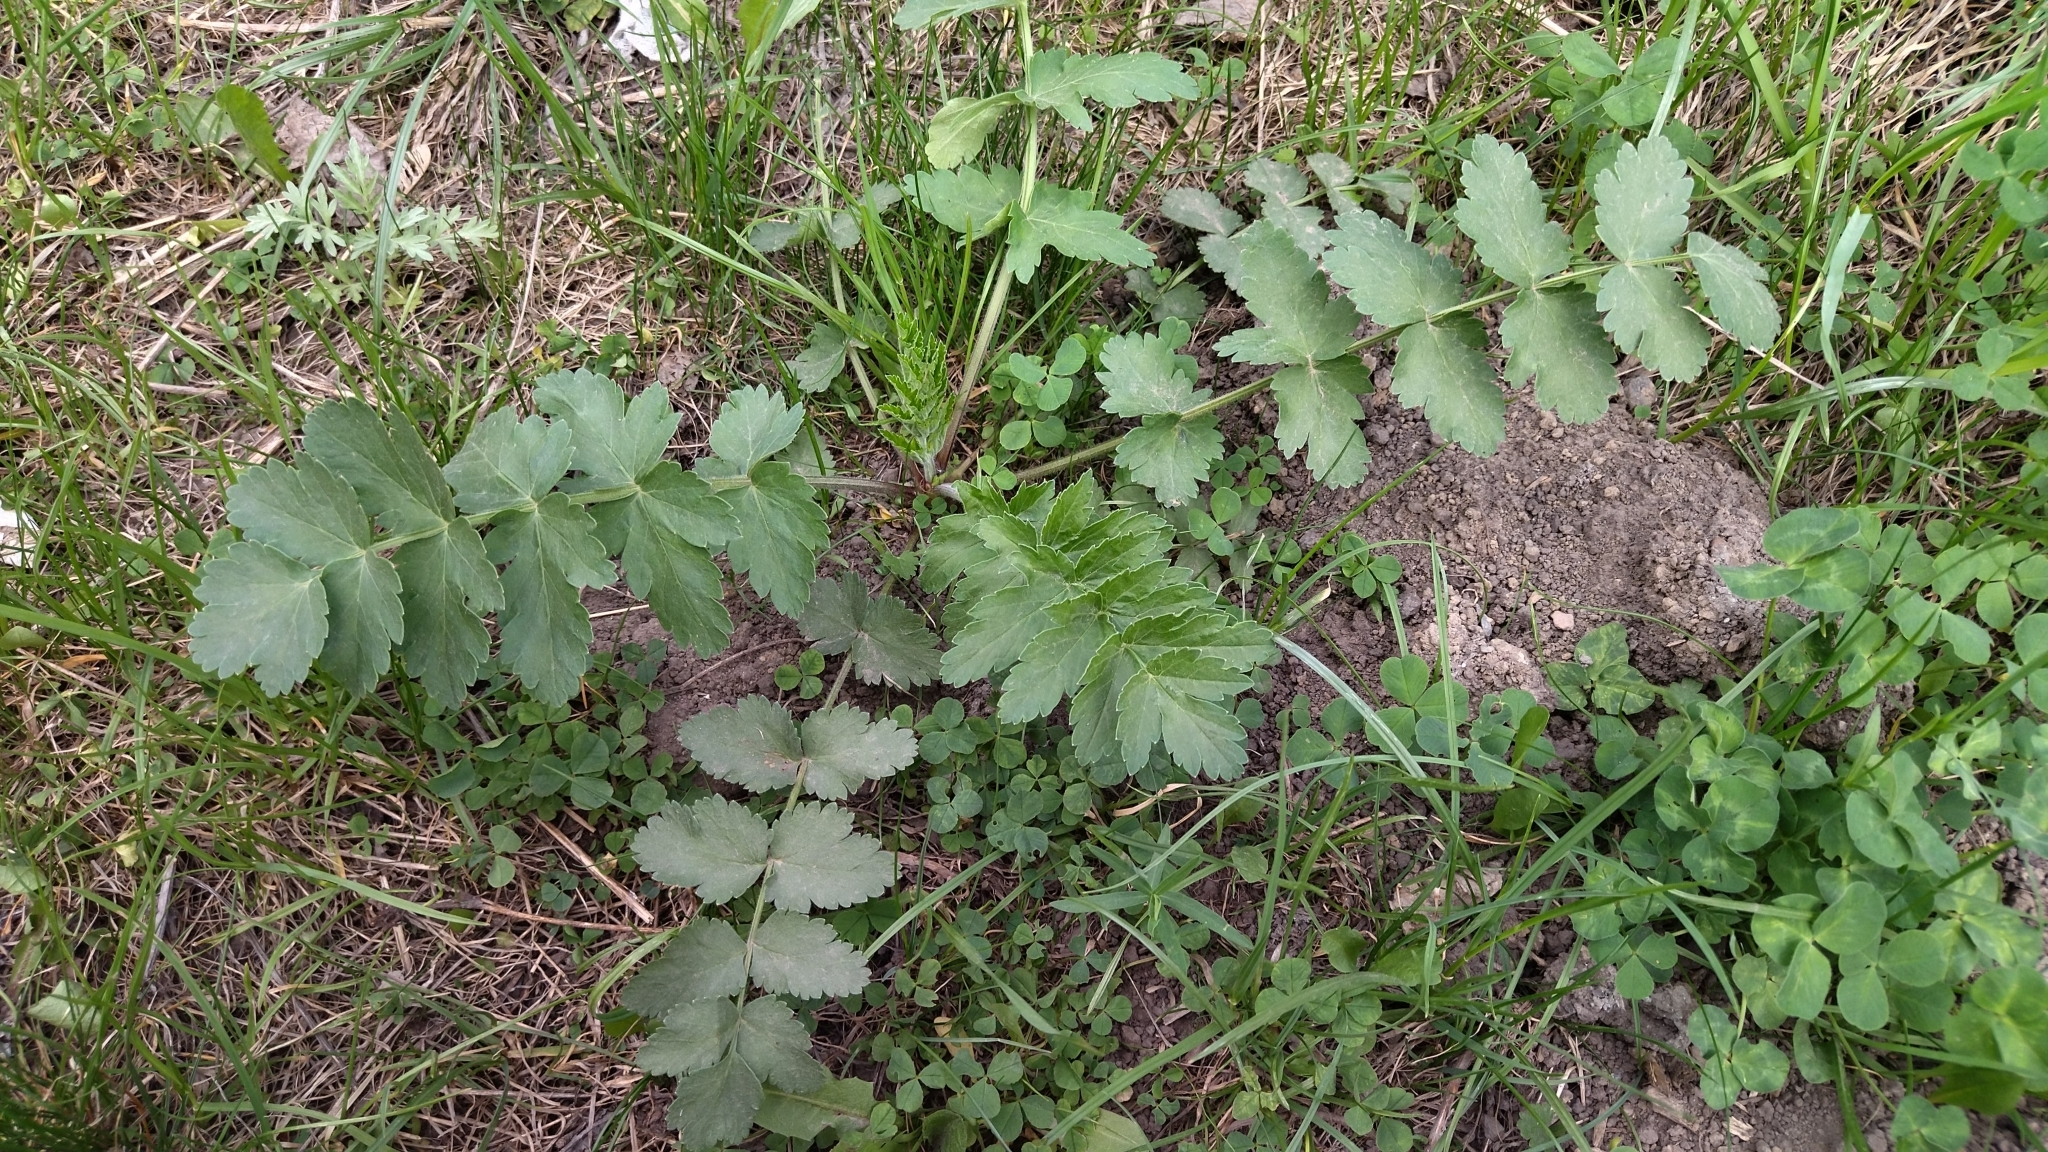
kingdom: Plantae
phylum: Tracheophyta
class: Magnoliopsida
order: Apiales
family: Apiaceae
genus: Pimpinella
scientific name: Pimpinella saxifraga
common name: Burnet-saxifrage
